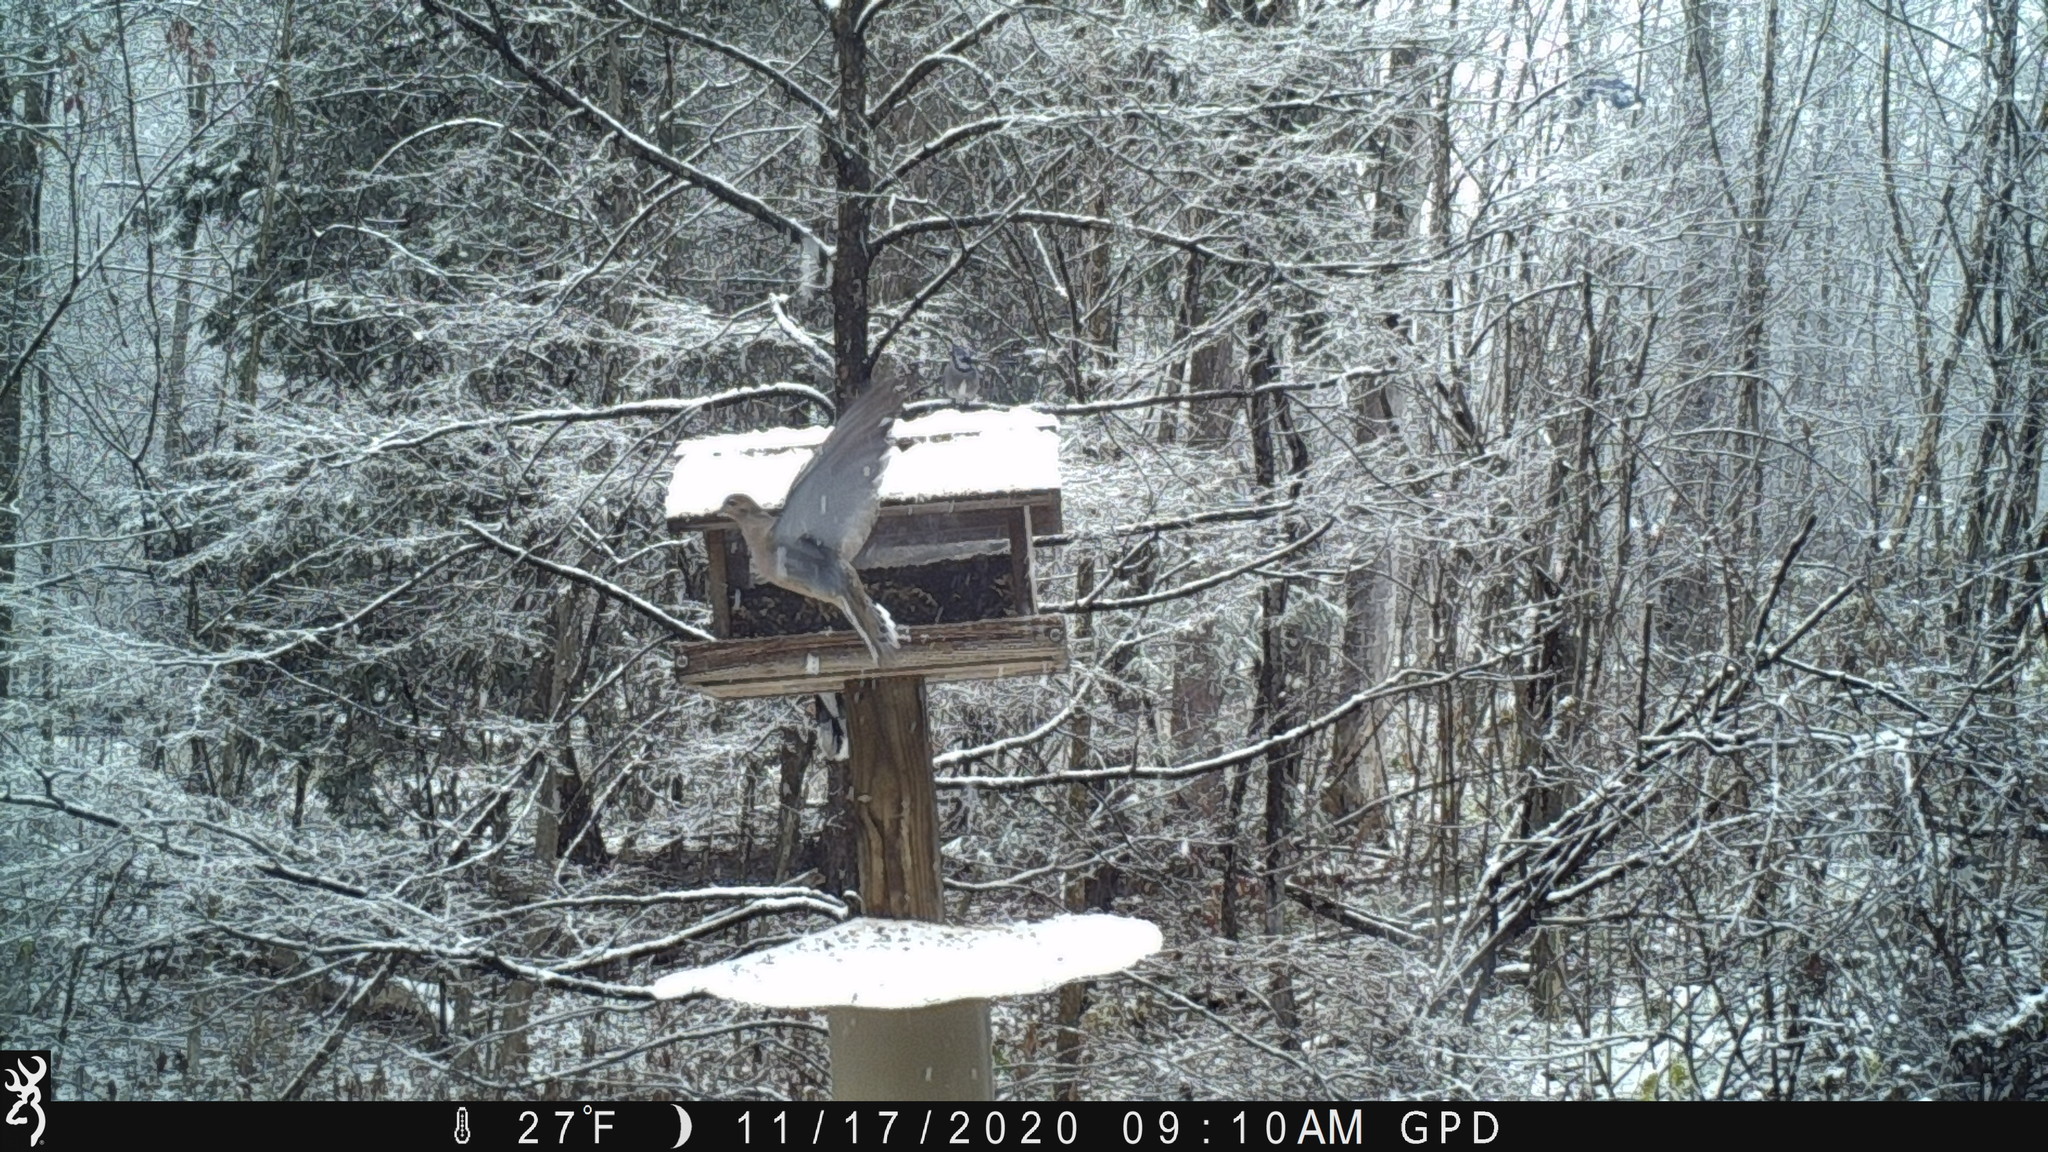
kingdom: Animalia
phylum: Chordata
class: Aves
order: Columbiformes
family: Columbidae
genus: Zenaida
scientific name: Zenaida macroura
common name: Mourning dove
